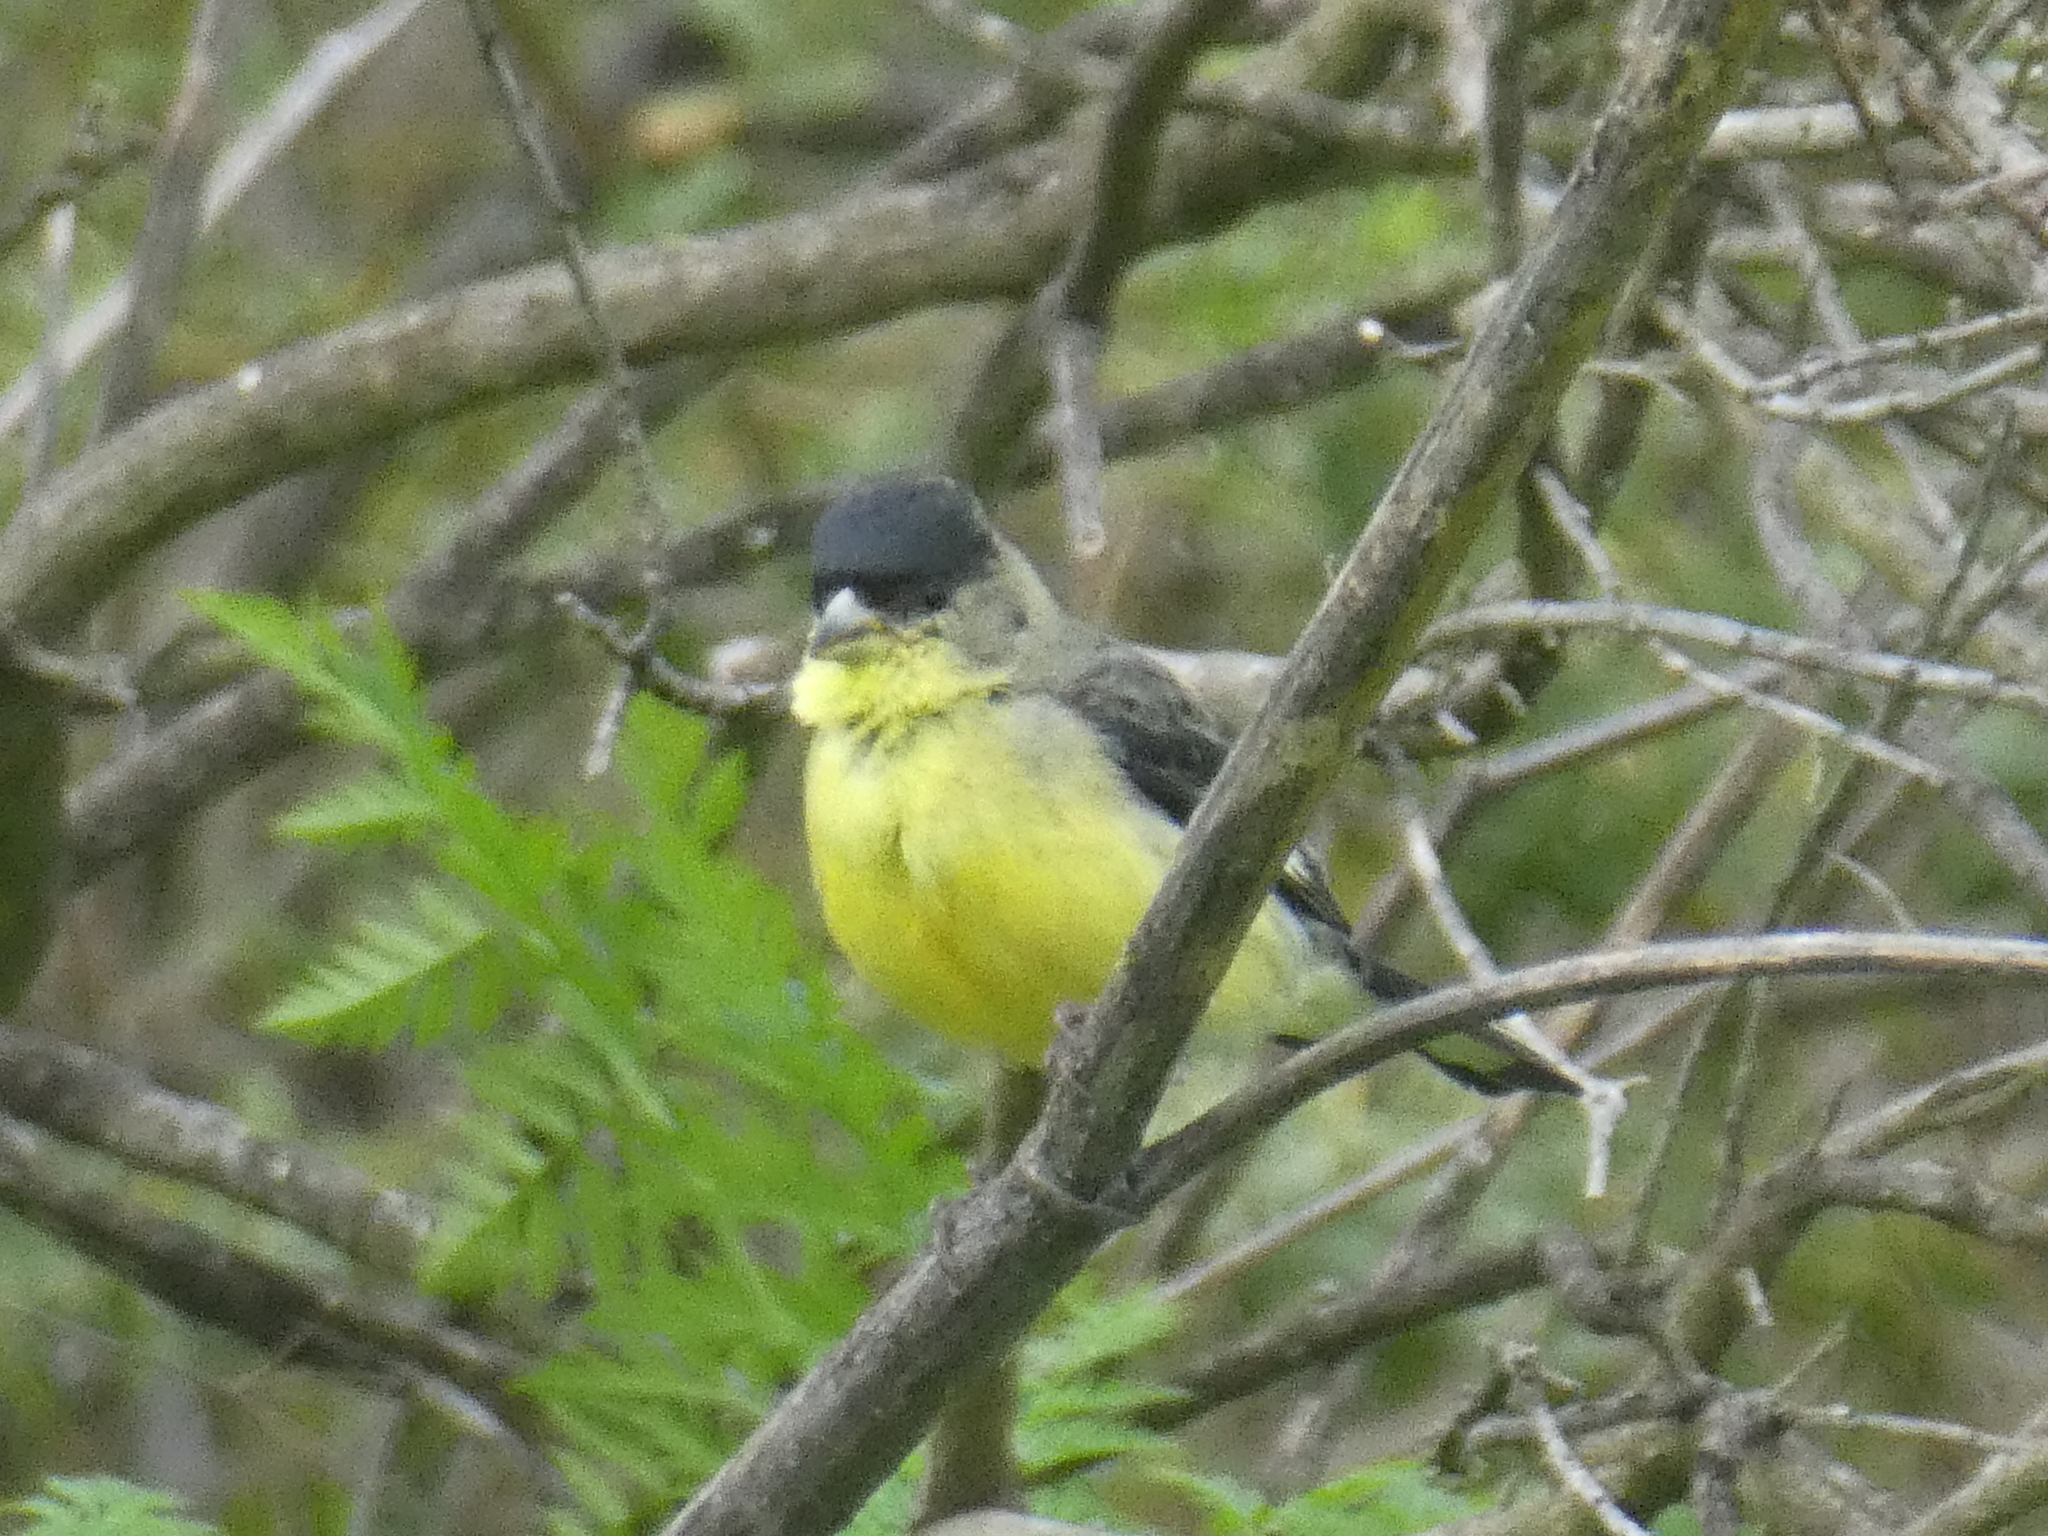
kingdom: Animalia
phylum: Chordata
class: Aves
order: Passeriformes
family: Fringillidae
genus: Spinus
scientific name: Spinus psaltria
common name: Lesser goldfinch
